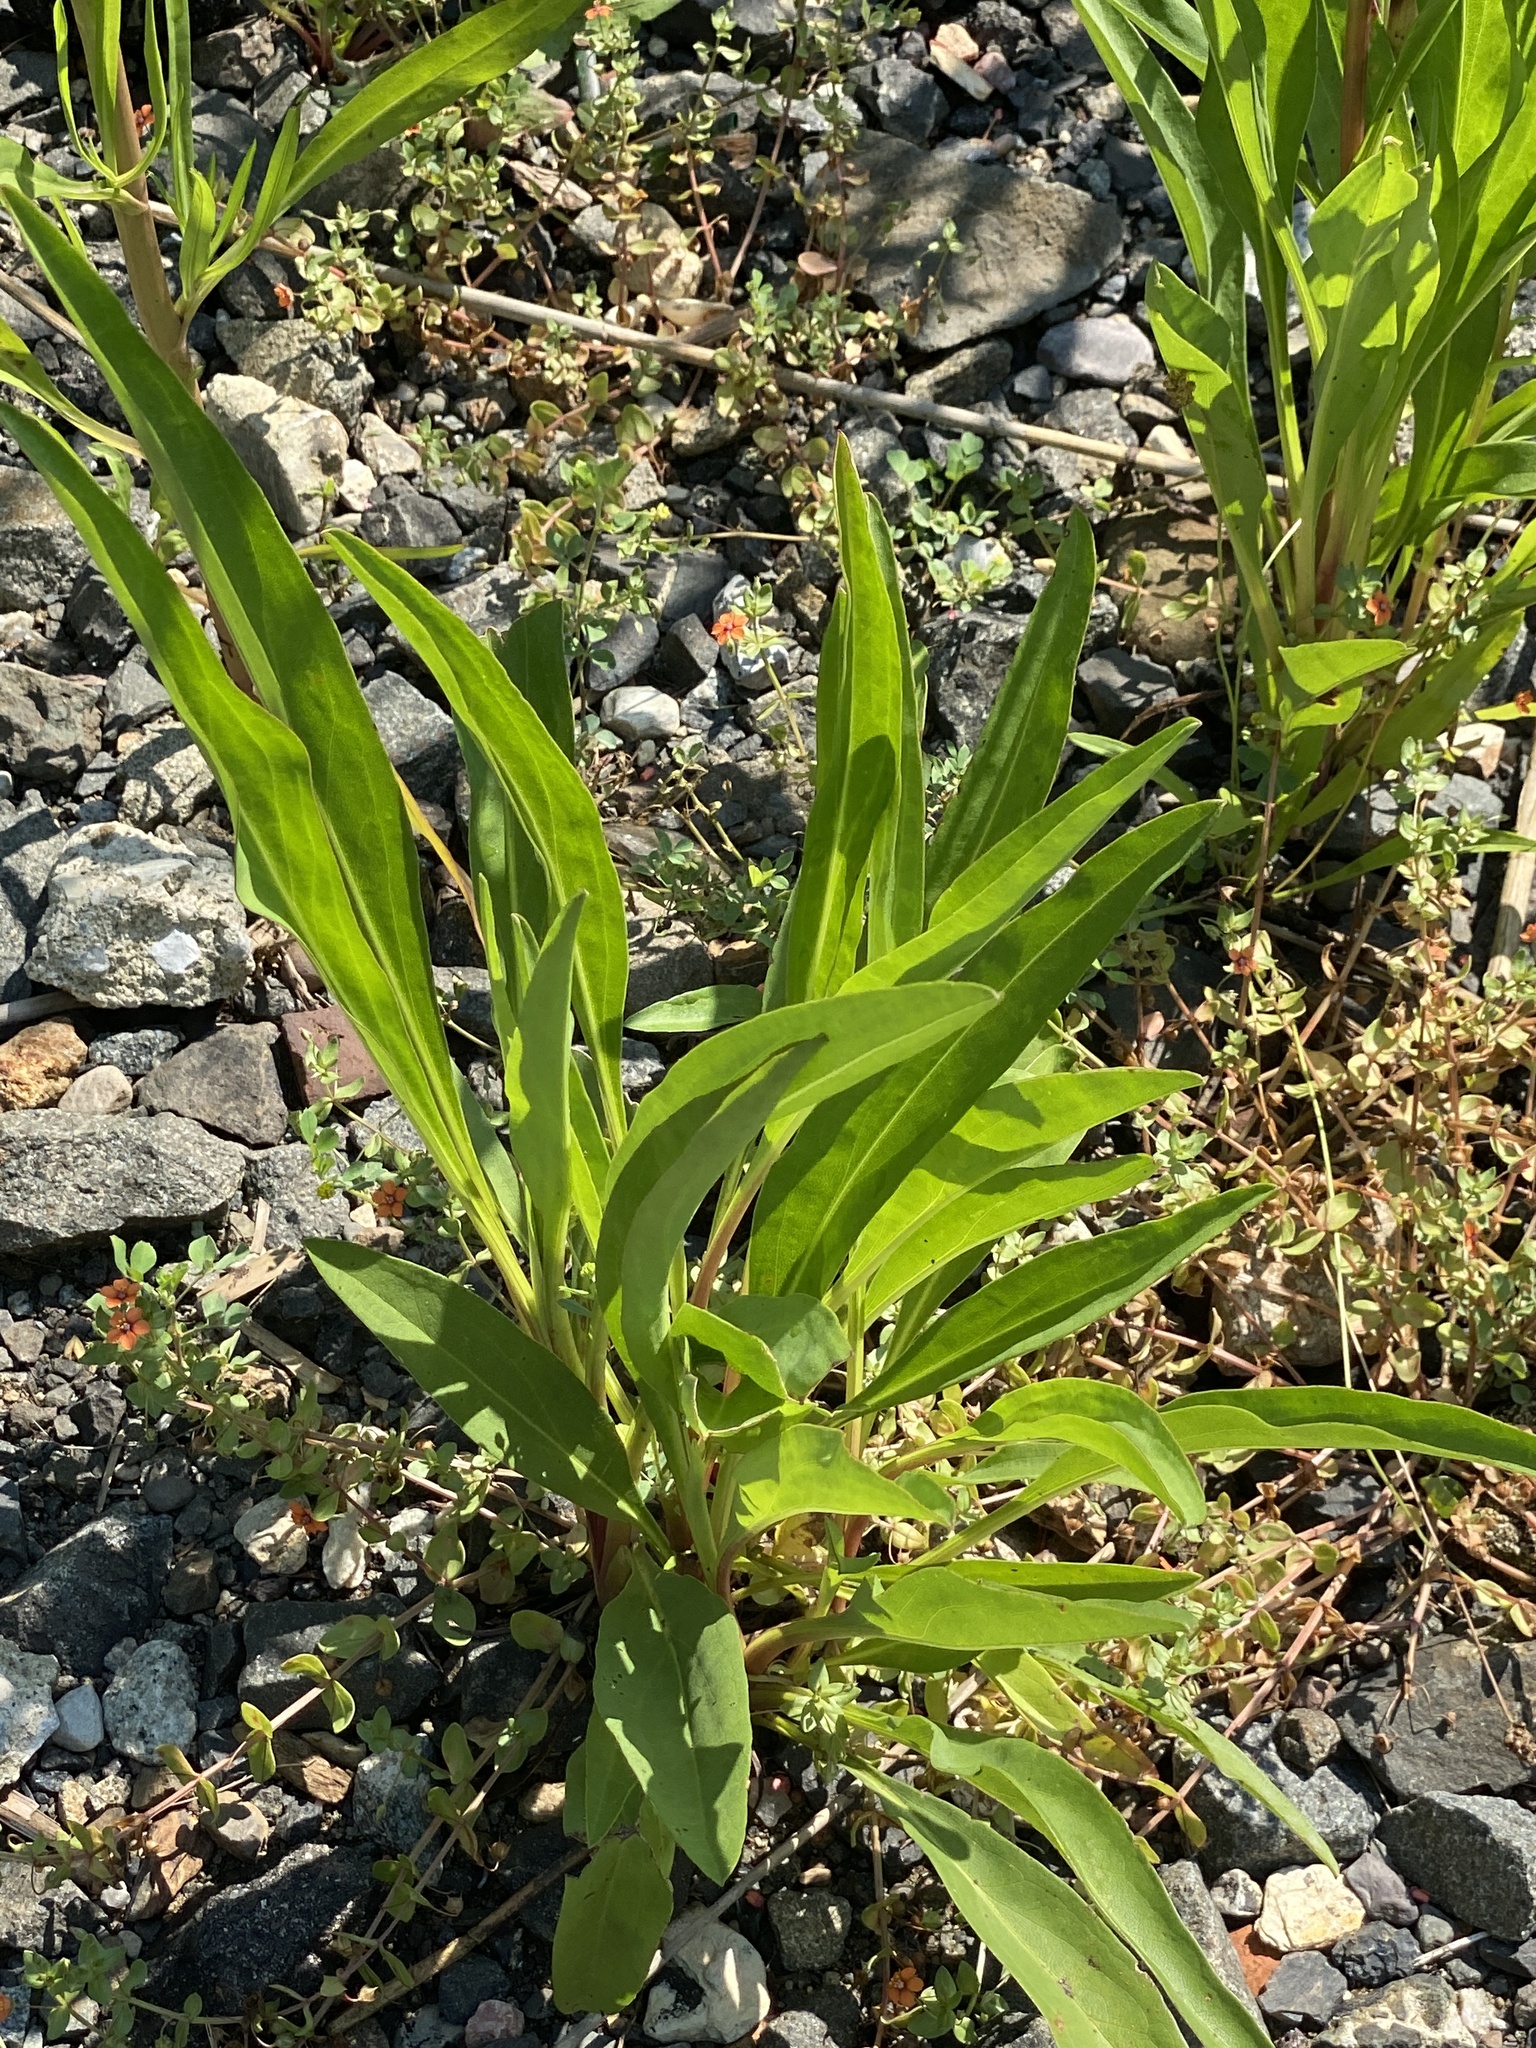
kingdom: Plantae
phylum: Tracheophyta
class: Magnoliopsida
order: Asterales
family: Asteraceae
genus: Solidago
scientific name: Solidago sempervirens
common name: Salt-marsh goldenrod
